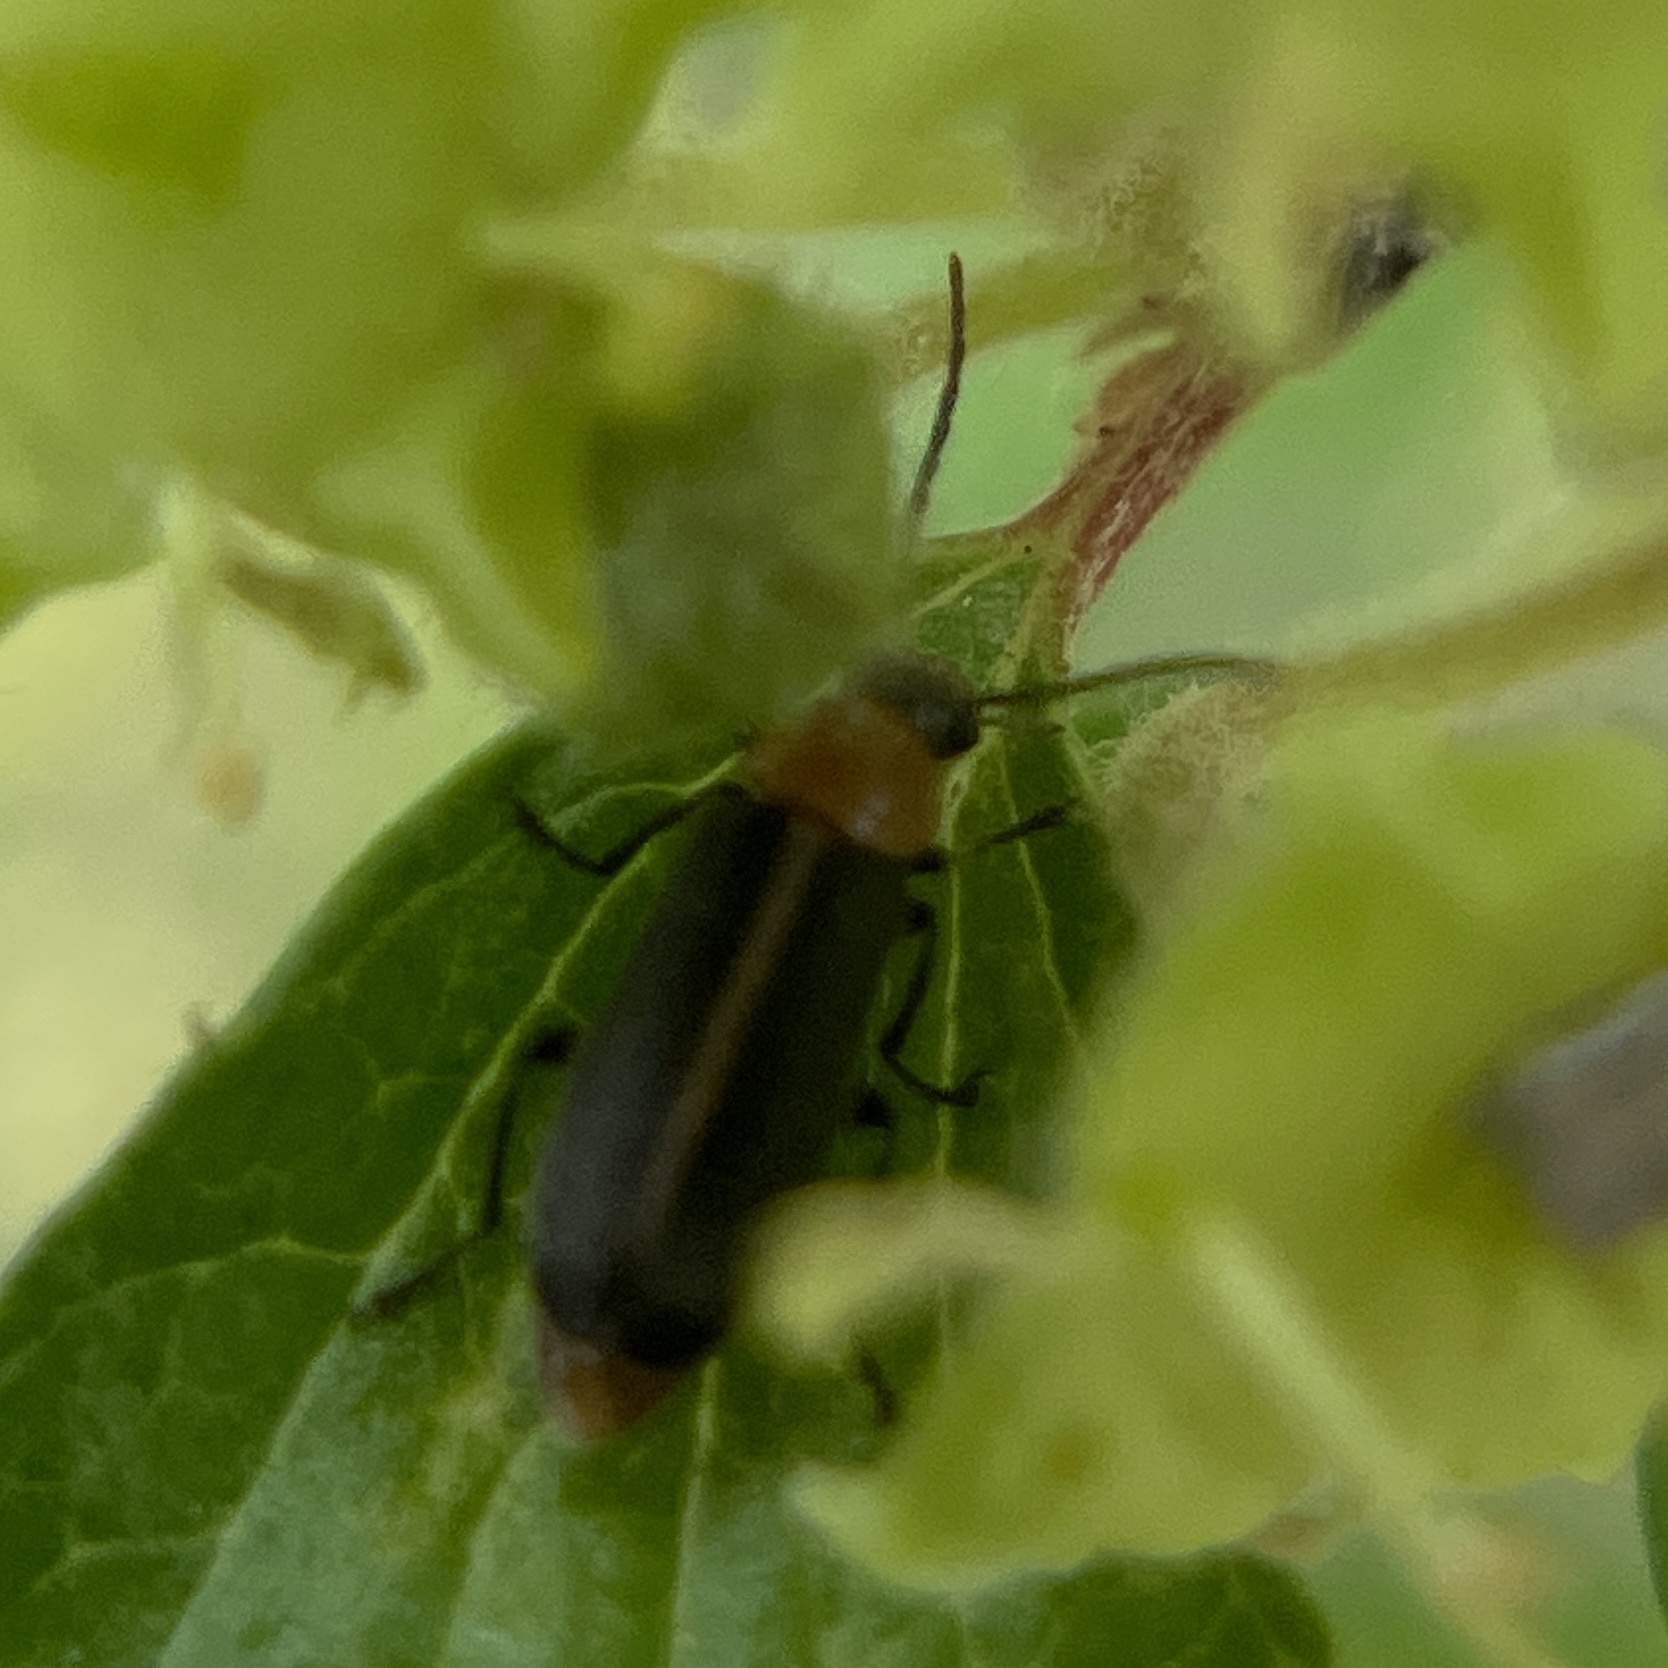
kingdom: Animalia
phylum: Arthropoda
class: Insecta
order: Coleoptera
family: Melandryidae
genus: Osphya
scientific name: Osphya varians
